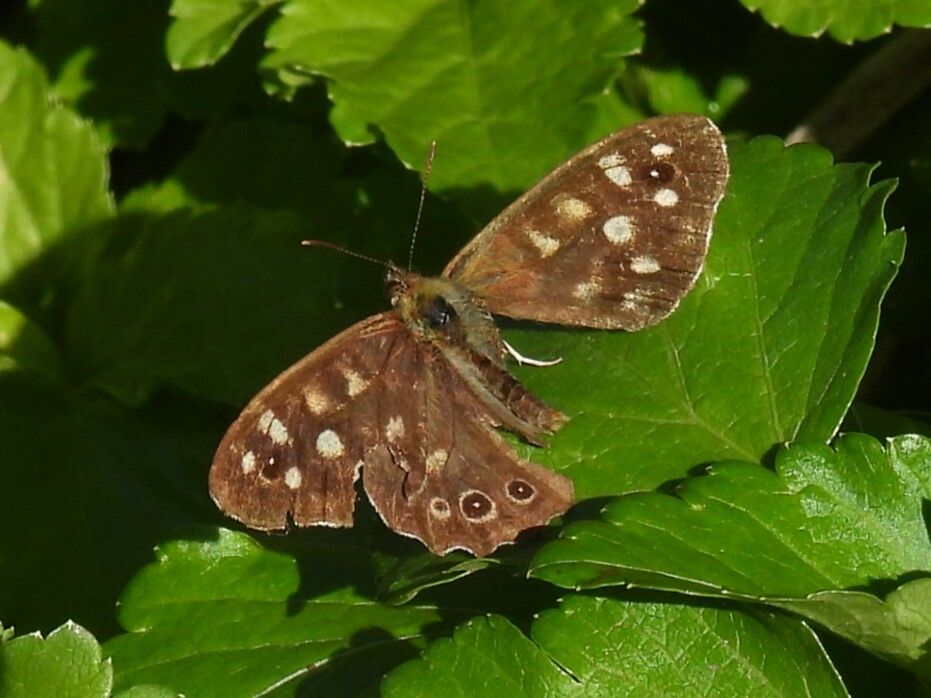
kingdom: Animalia
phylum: Arthropoda
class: Insecta
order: Lepidoptera
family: Nymphalidae
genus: Pararge
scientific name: Pararge aegeria
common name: Speckled wood
